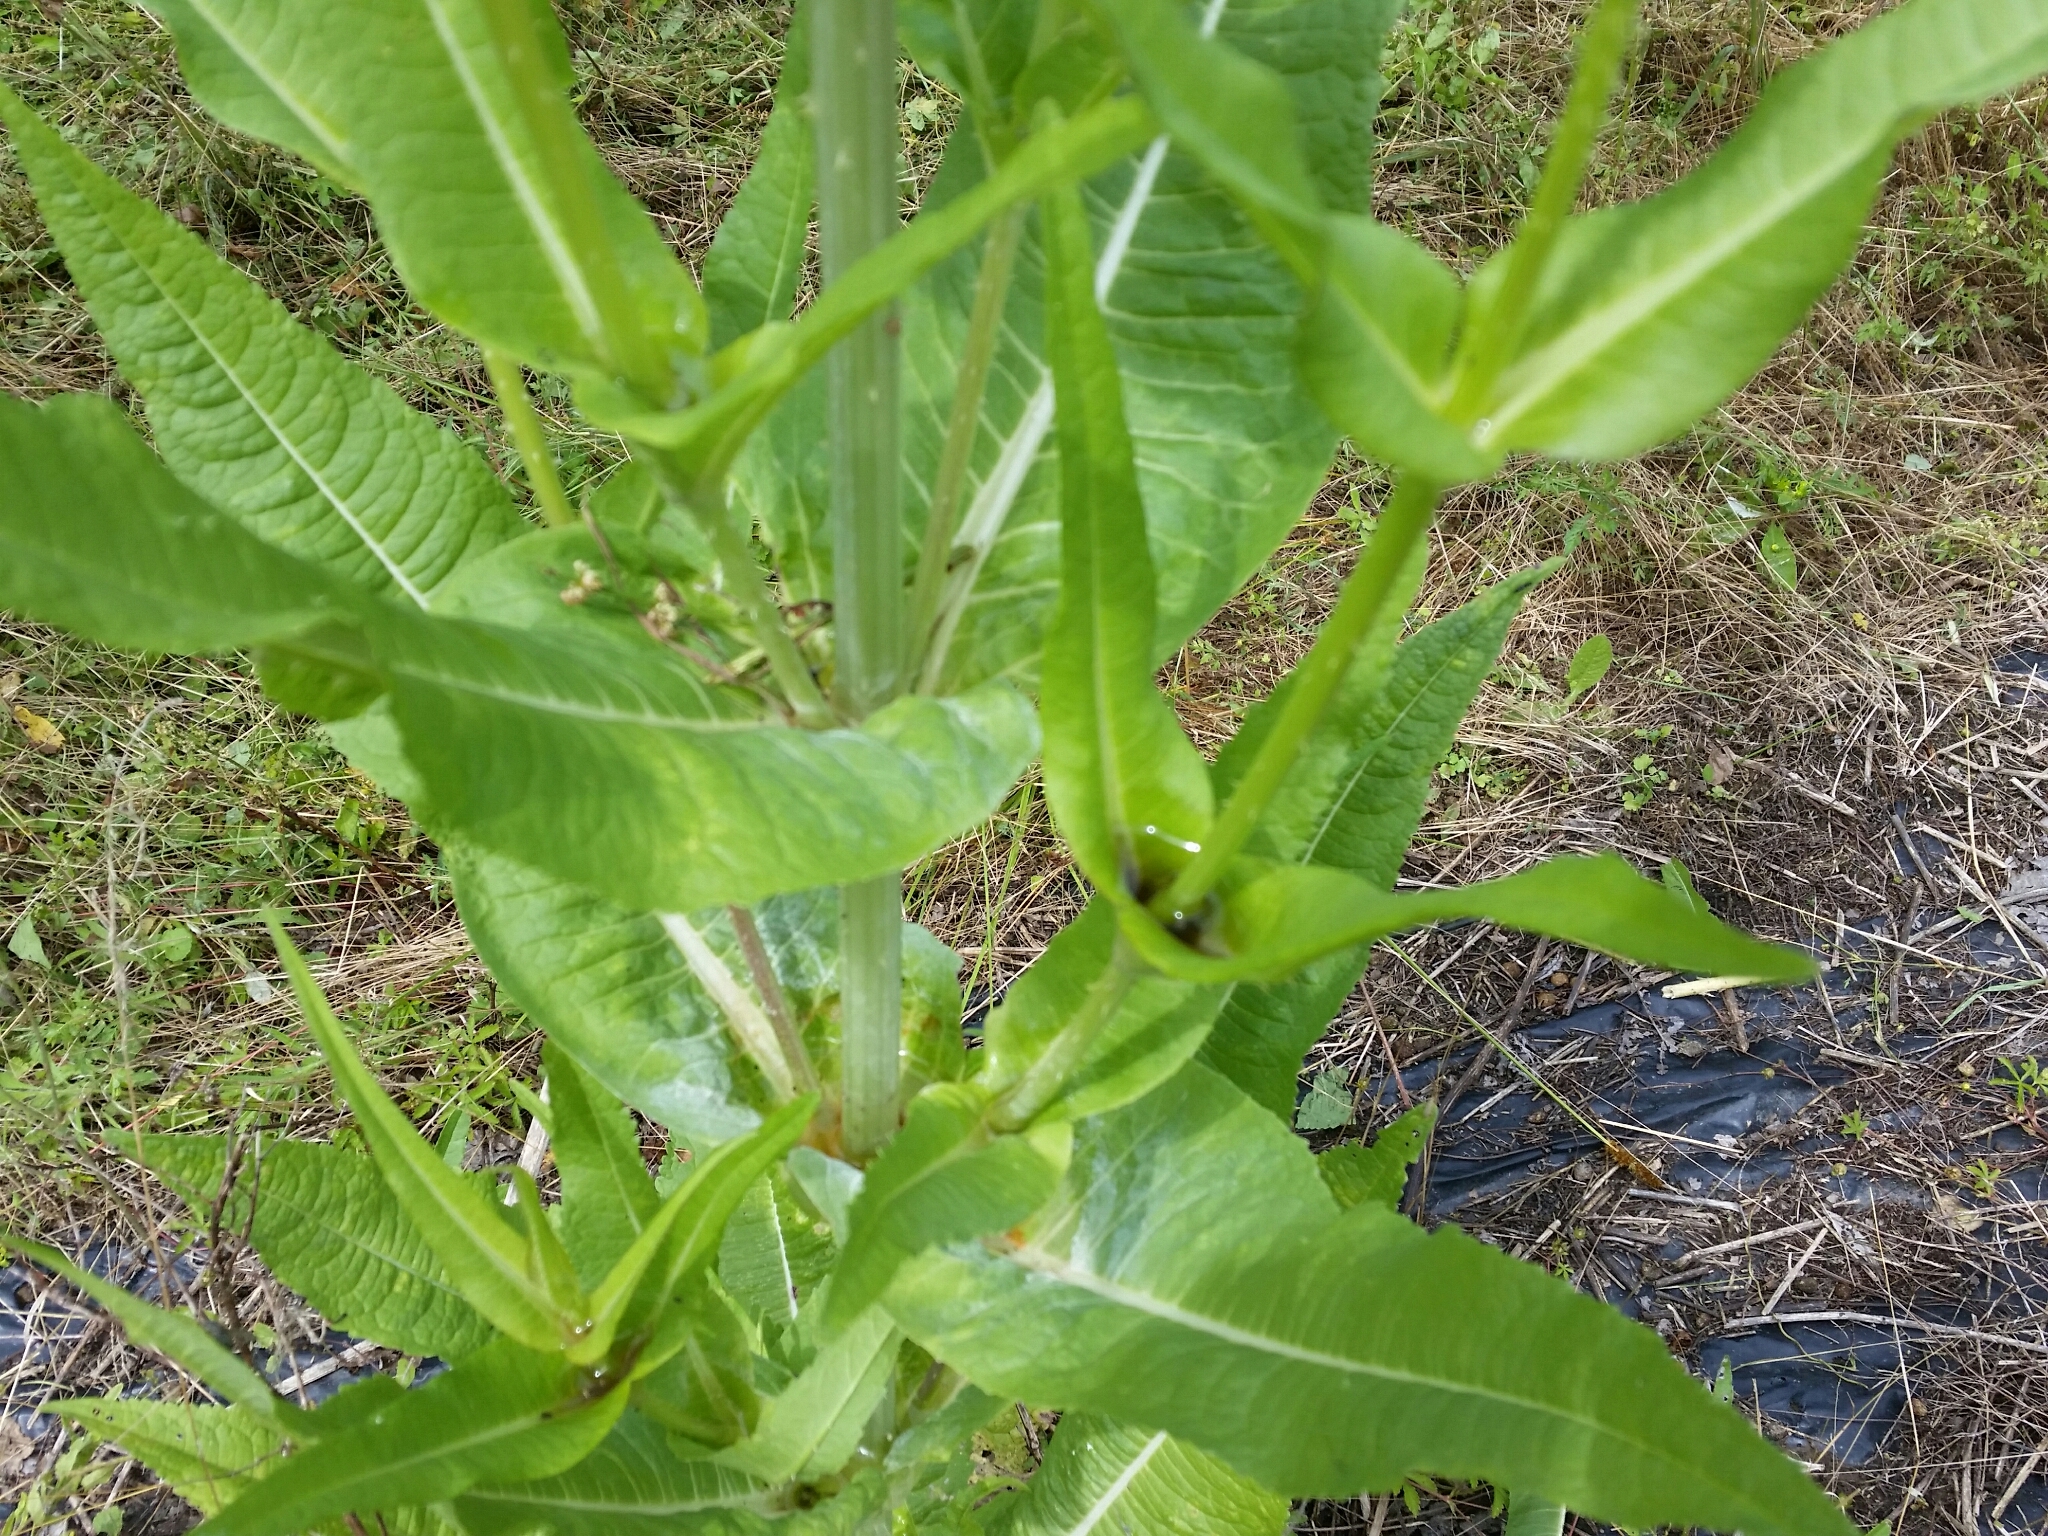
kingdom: Plantae
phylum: Tracheophyta
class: Magnoliopsida
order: Dipsacales
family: Caprifoliaceae
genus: Dipsacus
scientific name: Dipsacus fullonum
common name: Teasel
